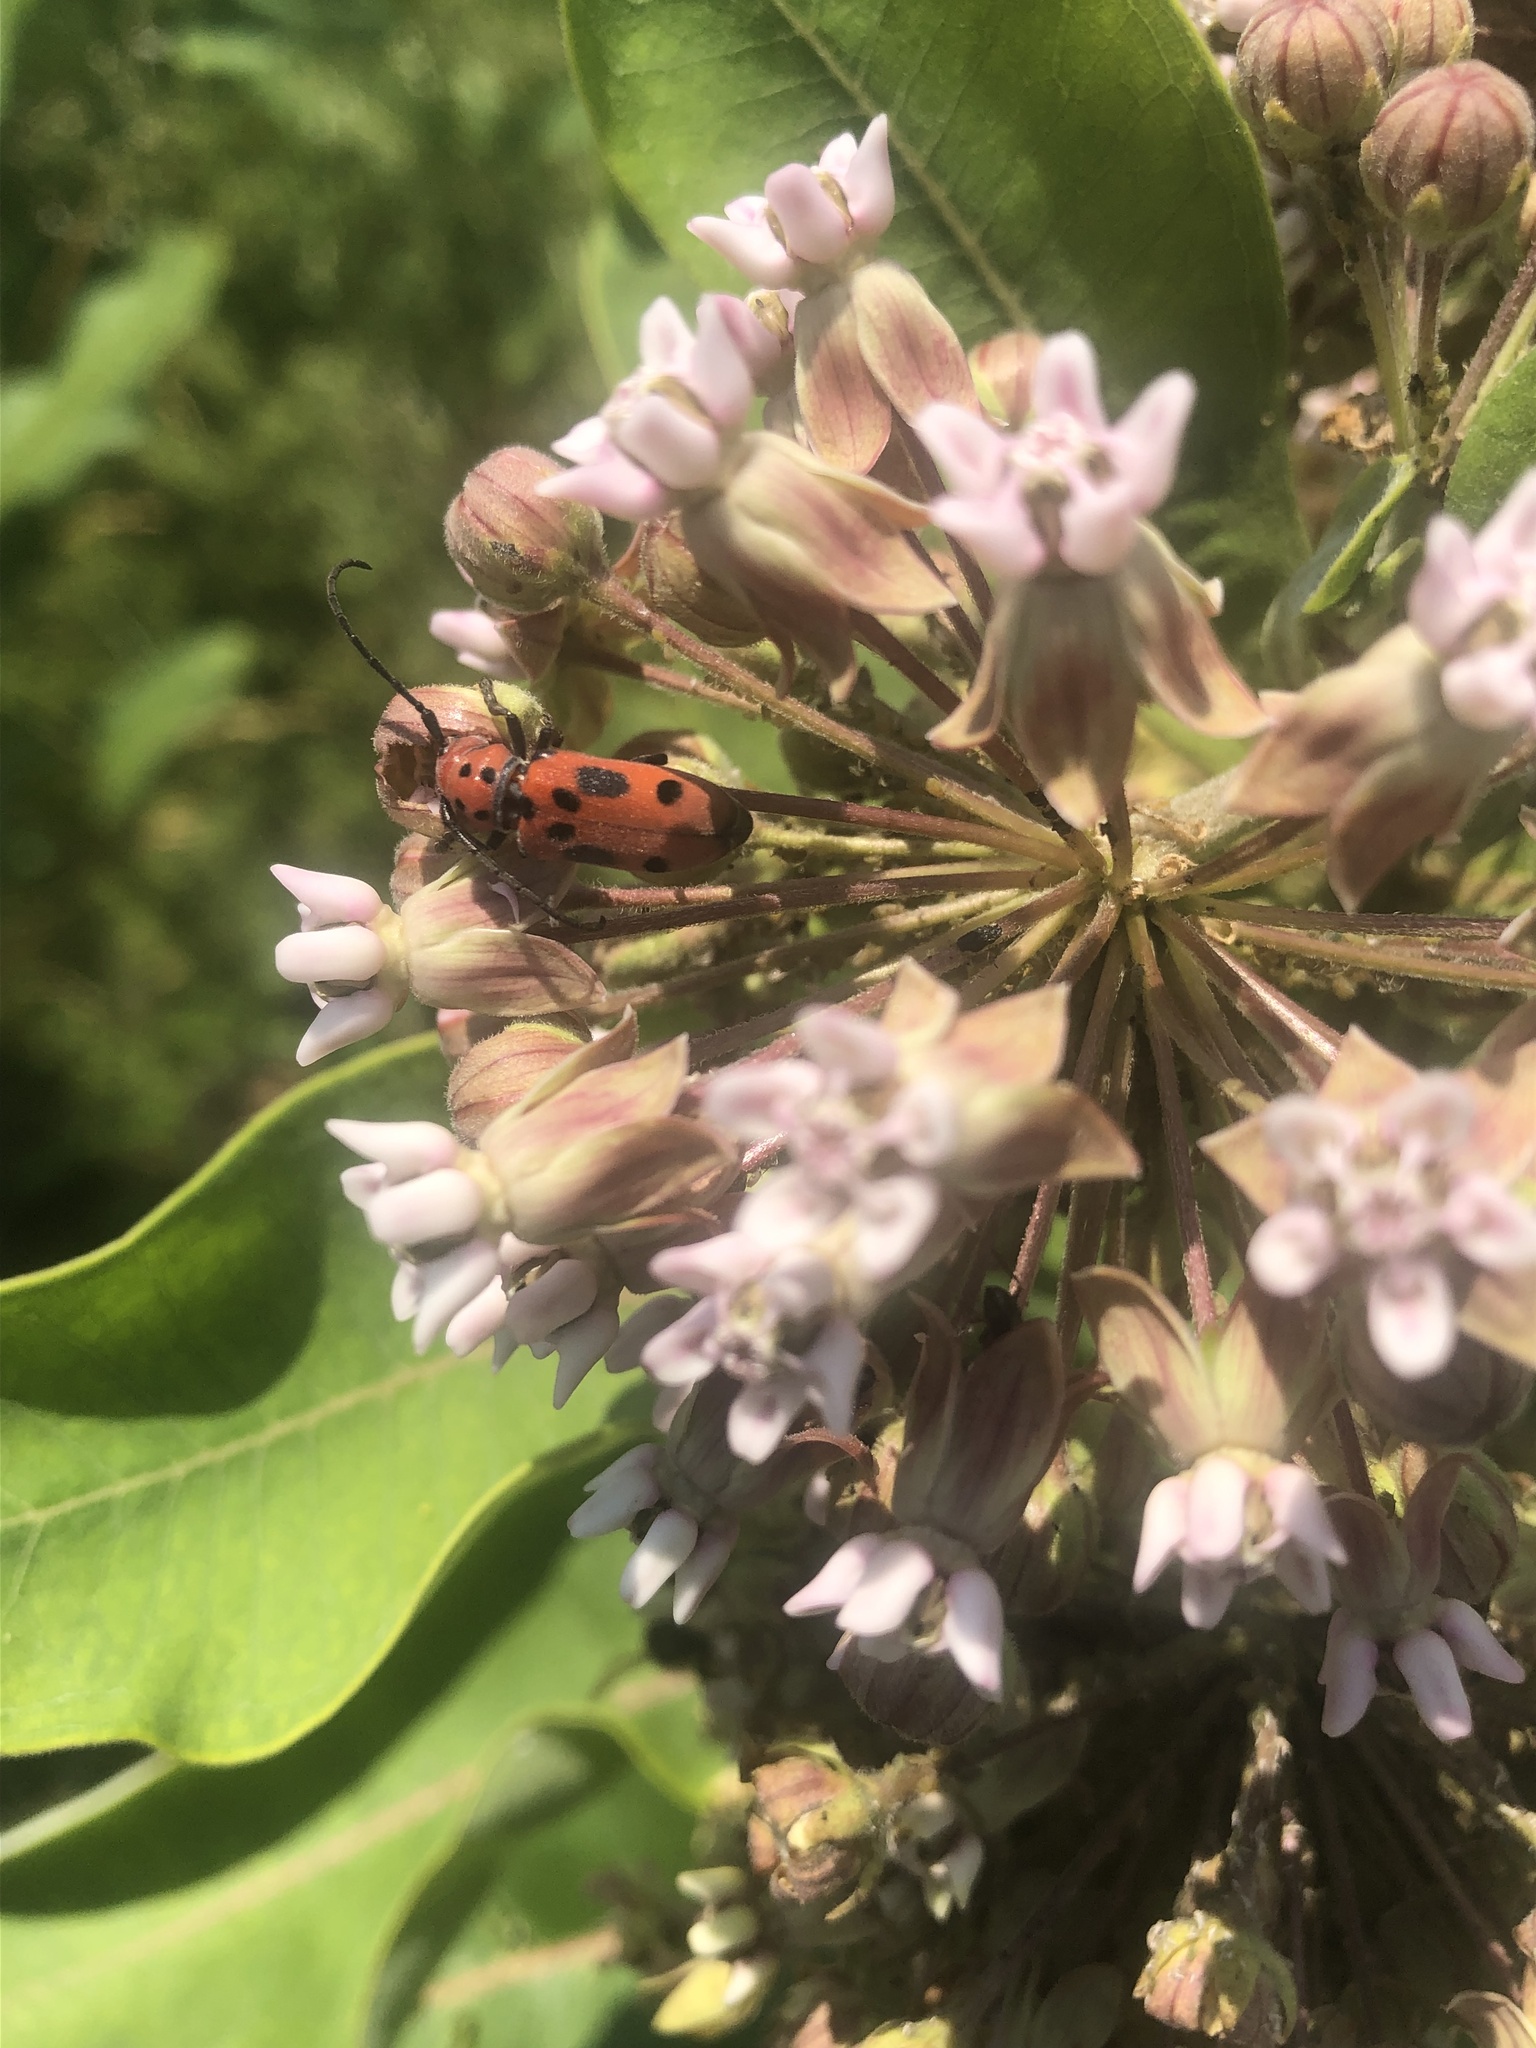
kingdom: Animalia
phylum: Arthropoda
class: Insecta
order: Coleoptera
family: Cerambycidae
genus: Tetraopes
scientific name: Tetraopes tetrophthalmus
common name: Red milkweed beetle
